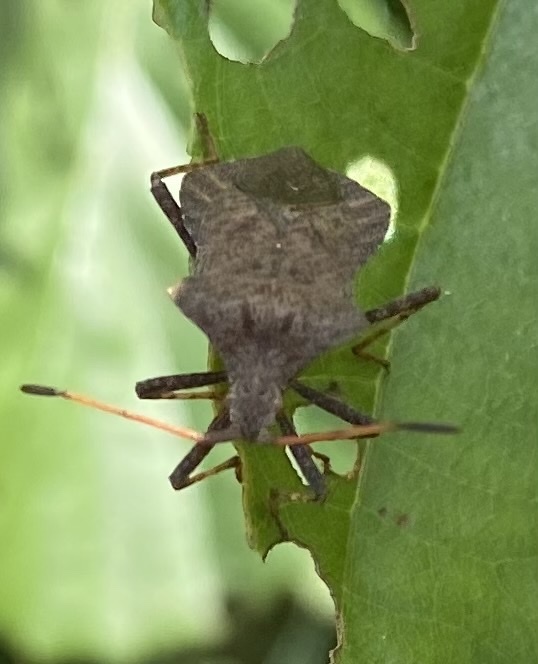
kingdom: Animalia
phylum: Arthropoda
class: Insecta
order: Hemiptera
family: Coreidae
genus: Coreus
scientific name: Coreus marginatus
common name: Dock bug
